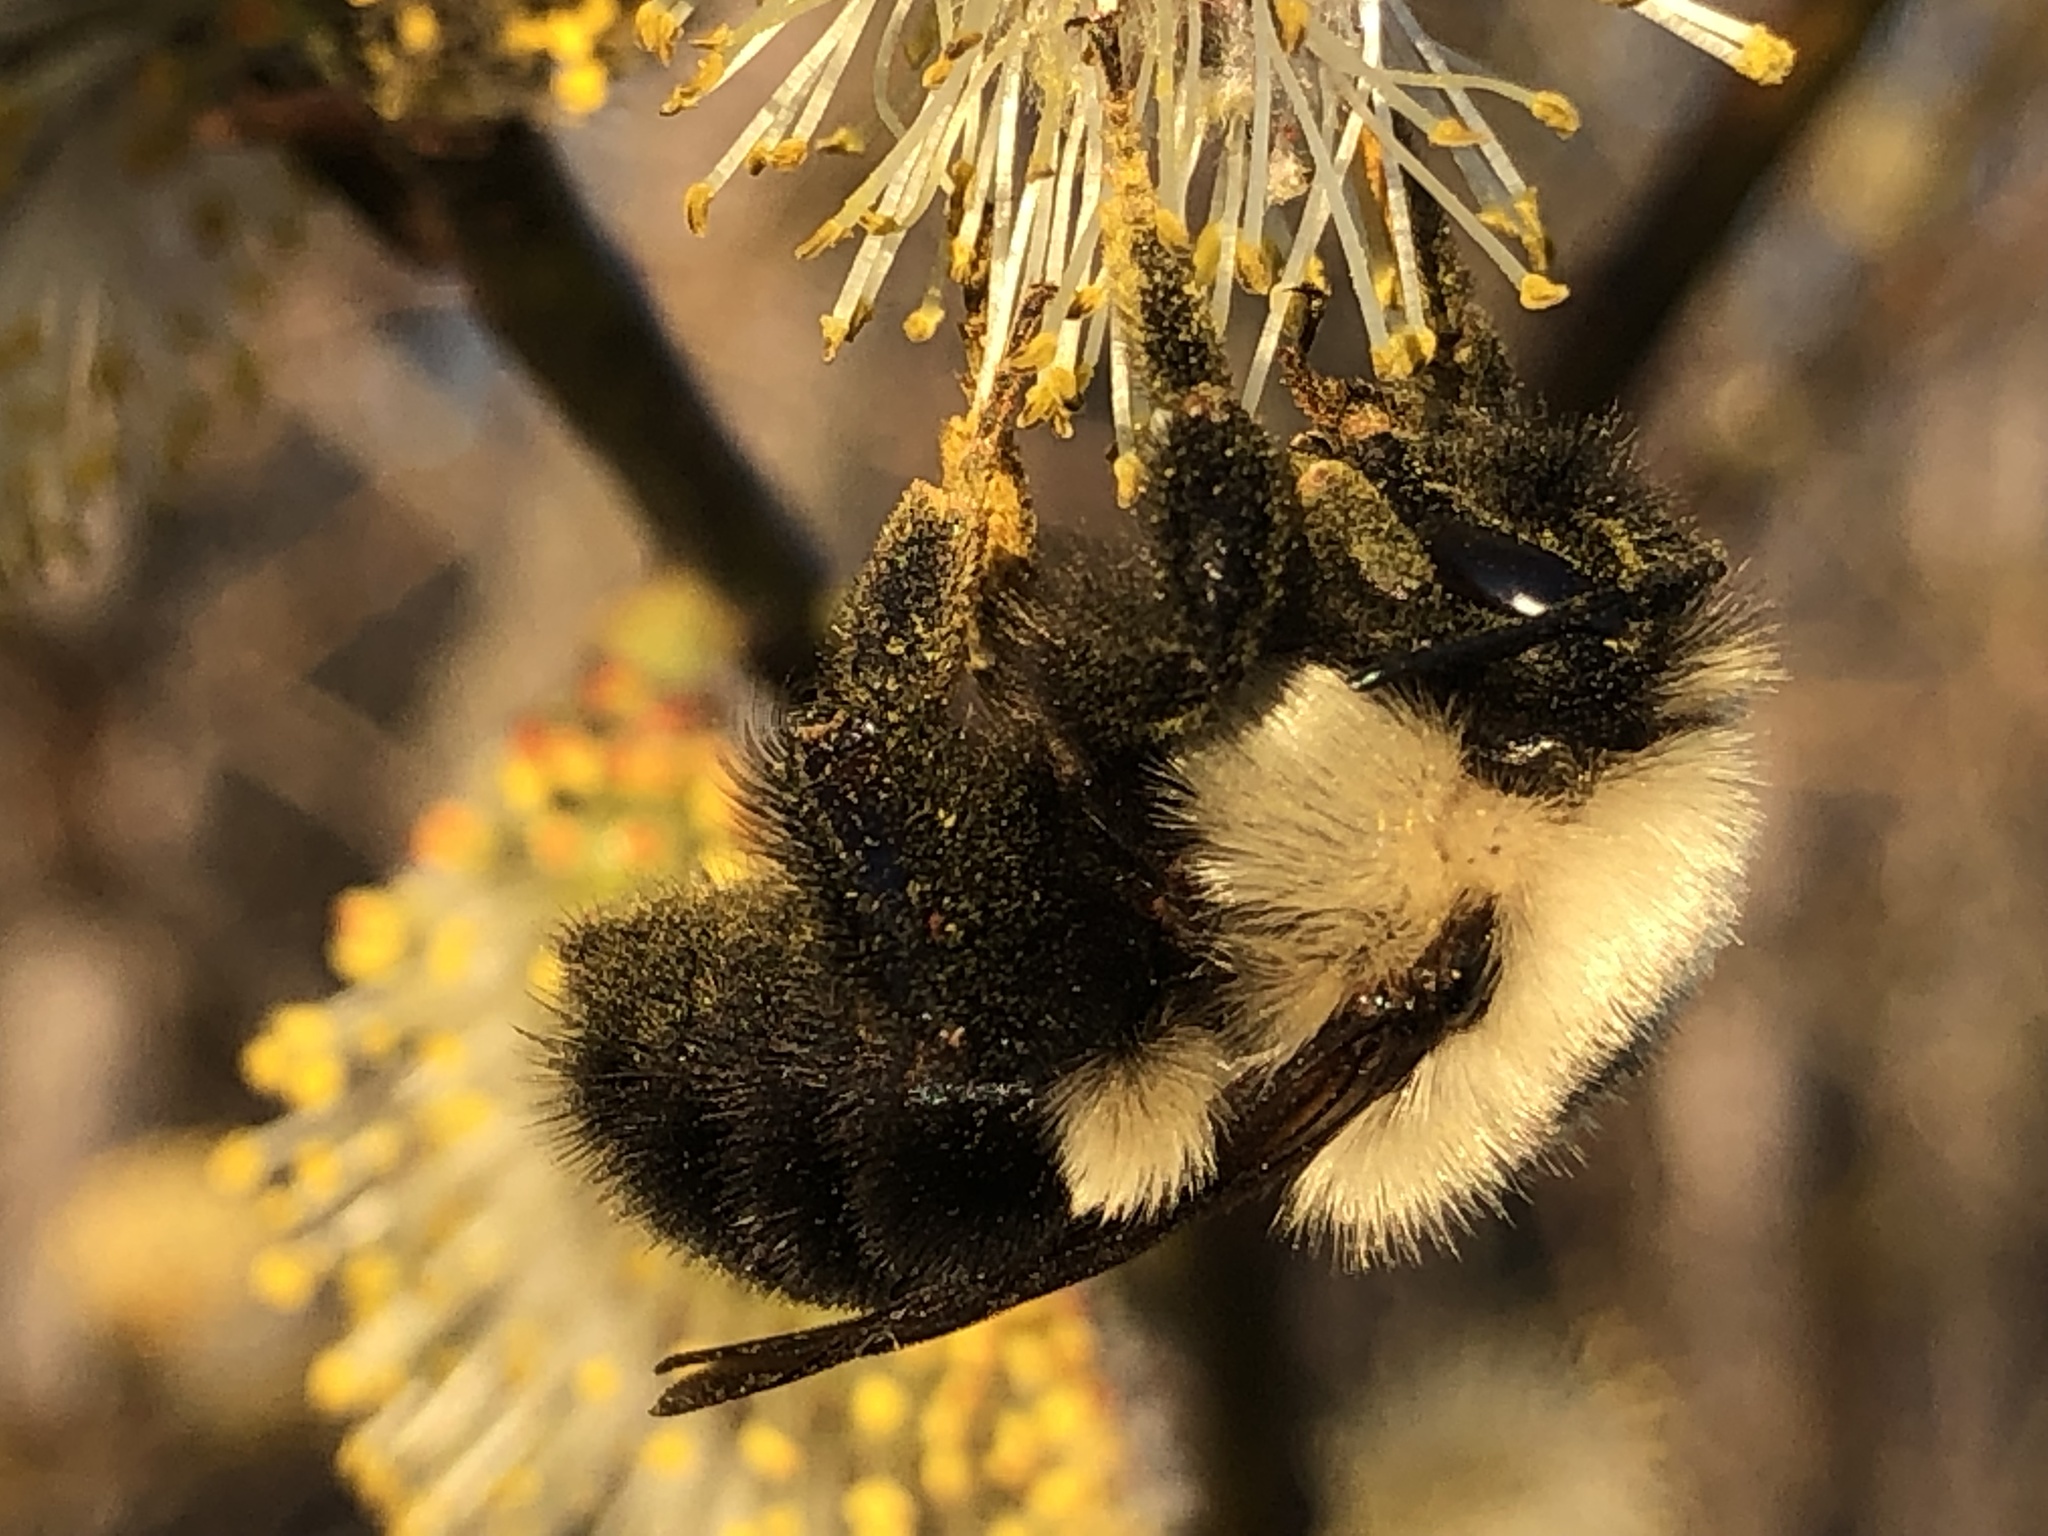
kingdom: Animalia
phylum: Arthropoda
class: Insecta
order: Hymenoptera
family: Apidae
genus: Bombus
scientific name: Bombus bimaculatus
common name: Two-spotted bumble bee
